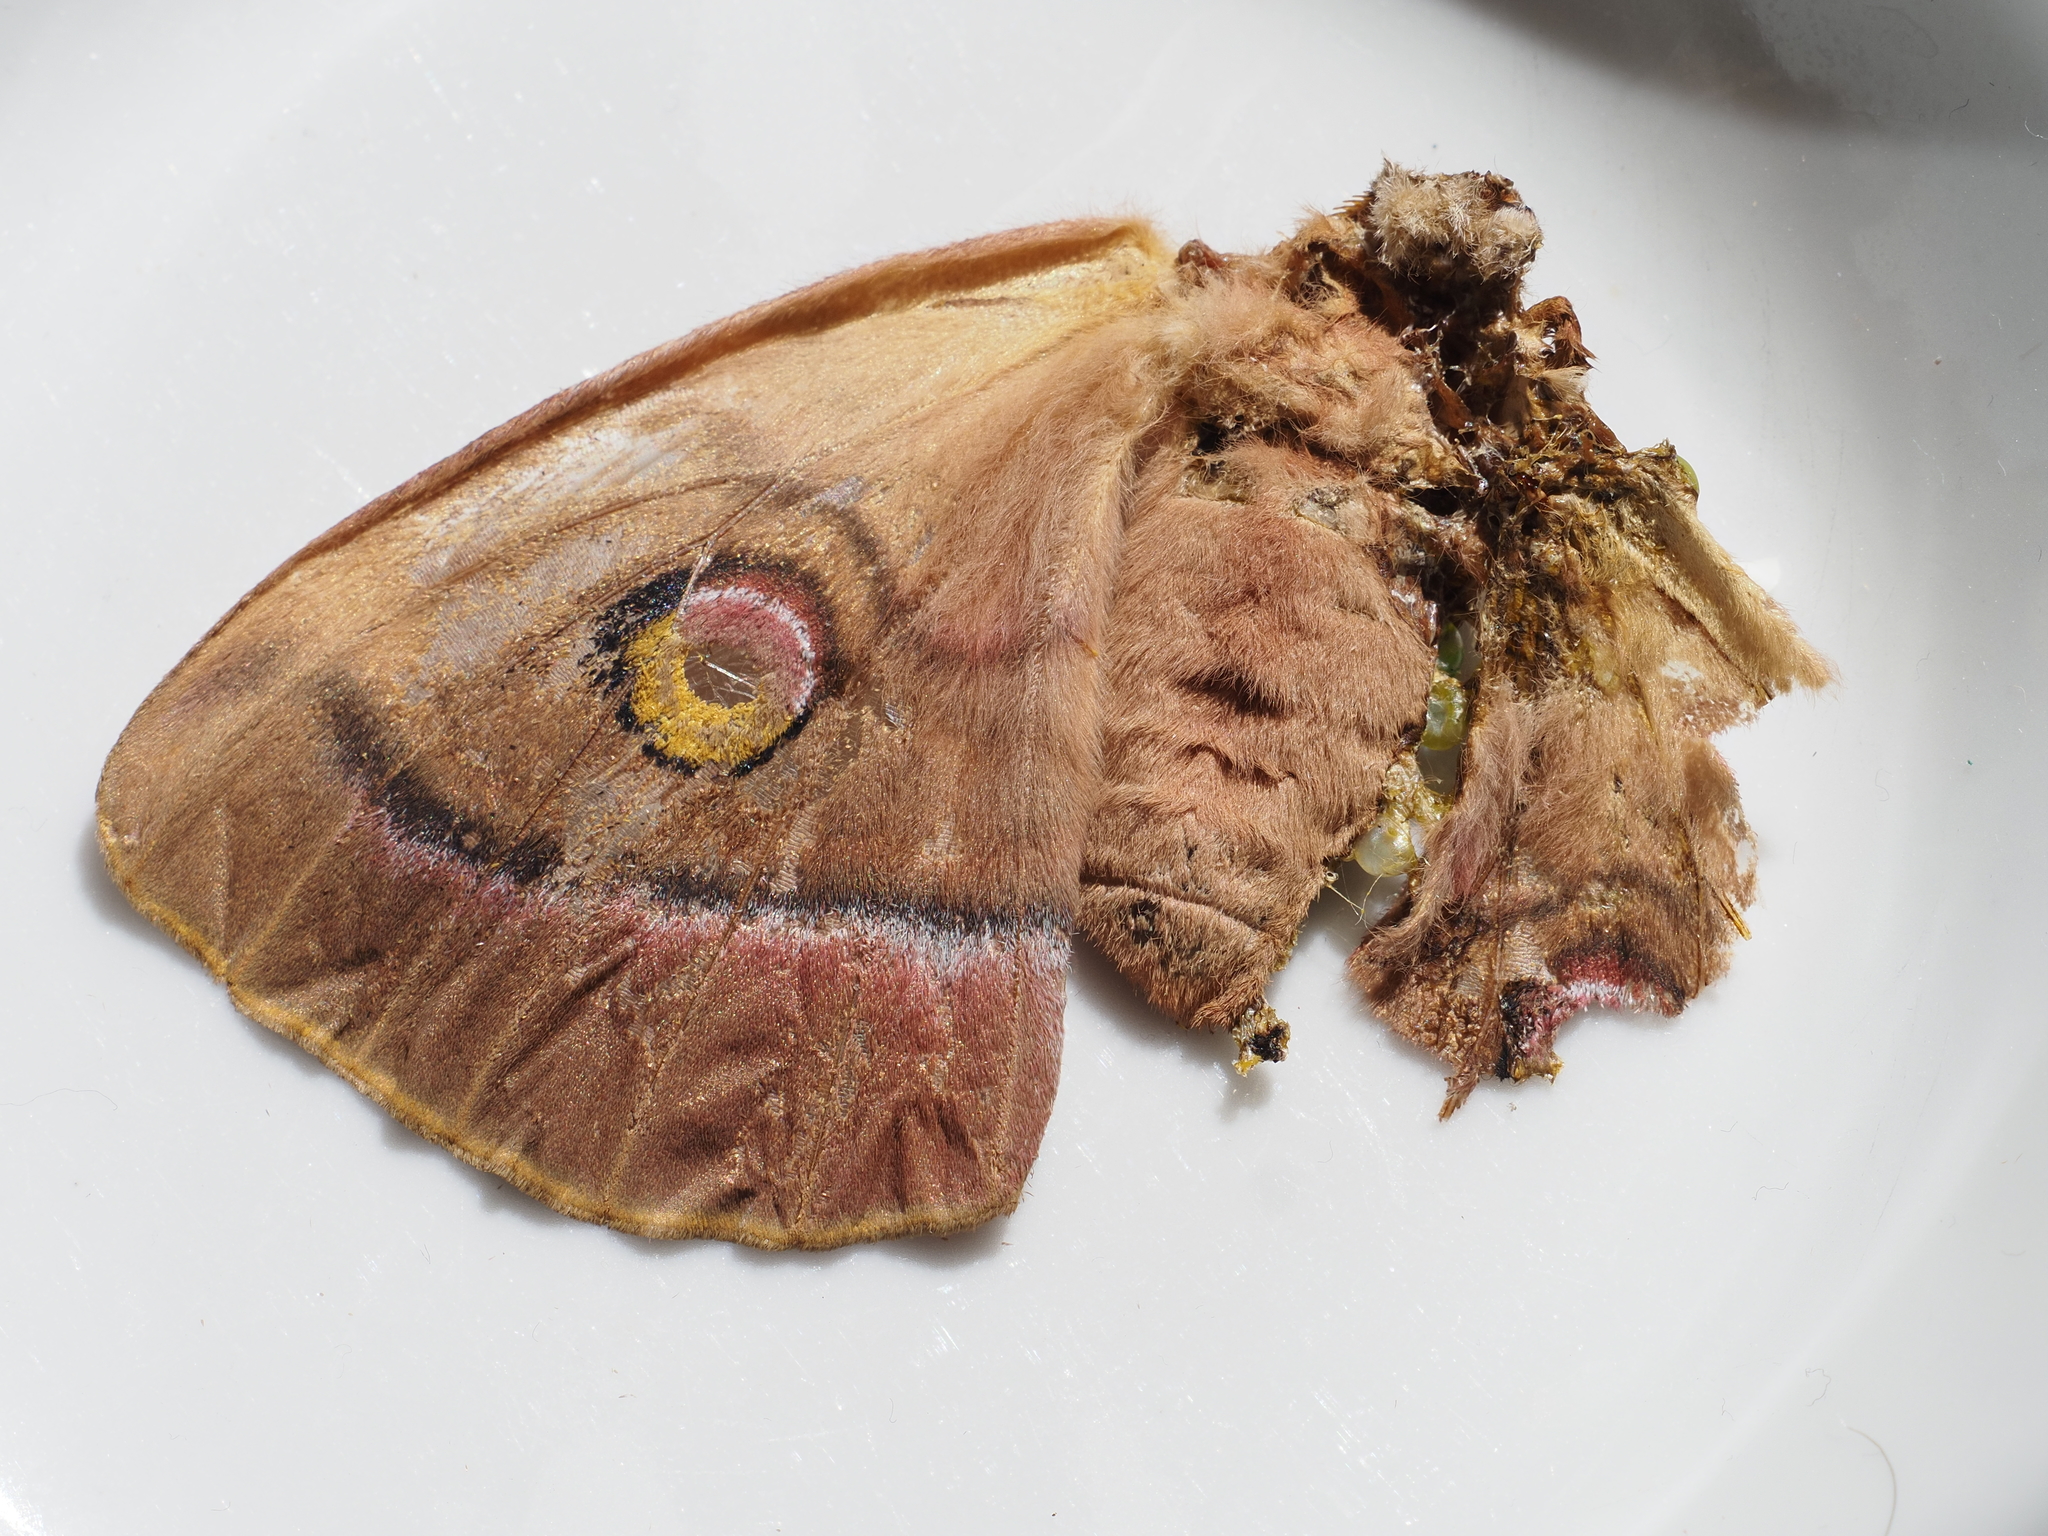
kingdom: Animalia
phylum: Arthropoda
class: Insecta
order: Lepidoptera
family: Saturniidae
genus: Antheraea
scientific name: Antheraea yamamai
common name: Japanese oak silk moth
